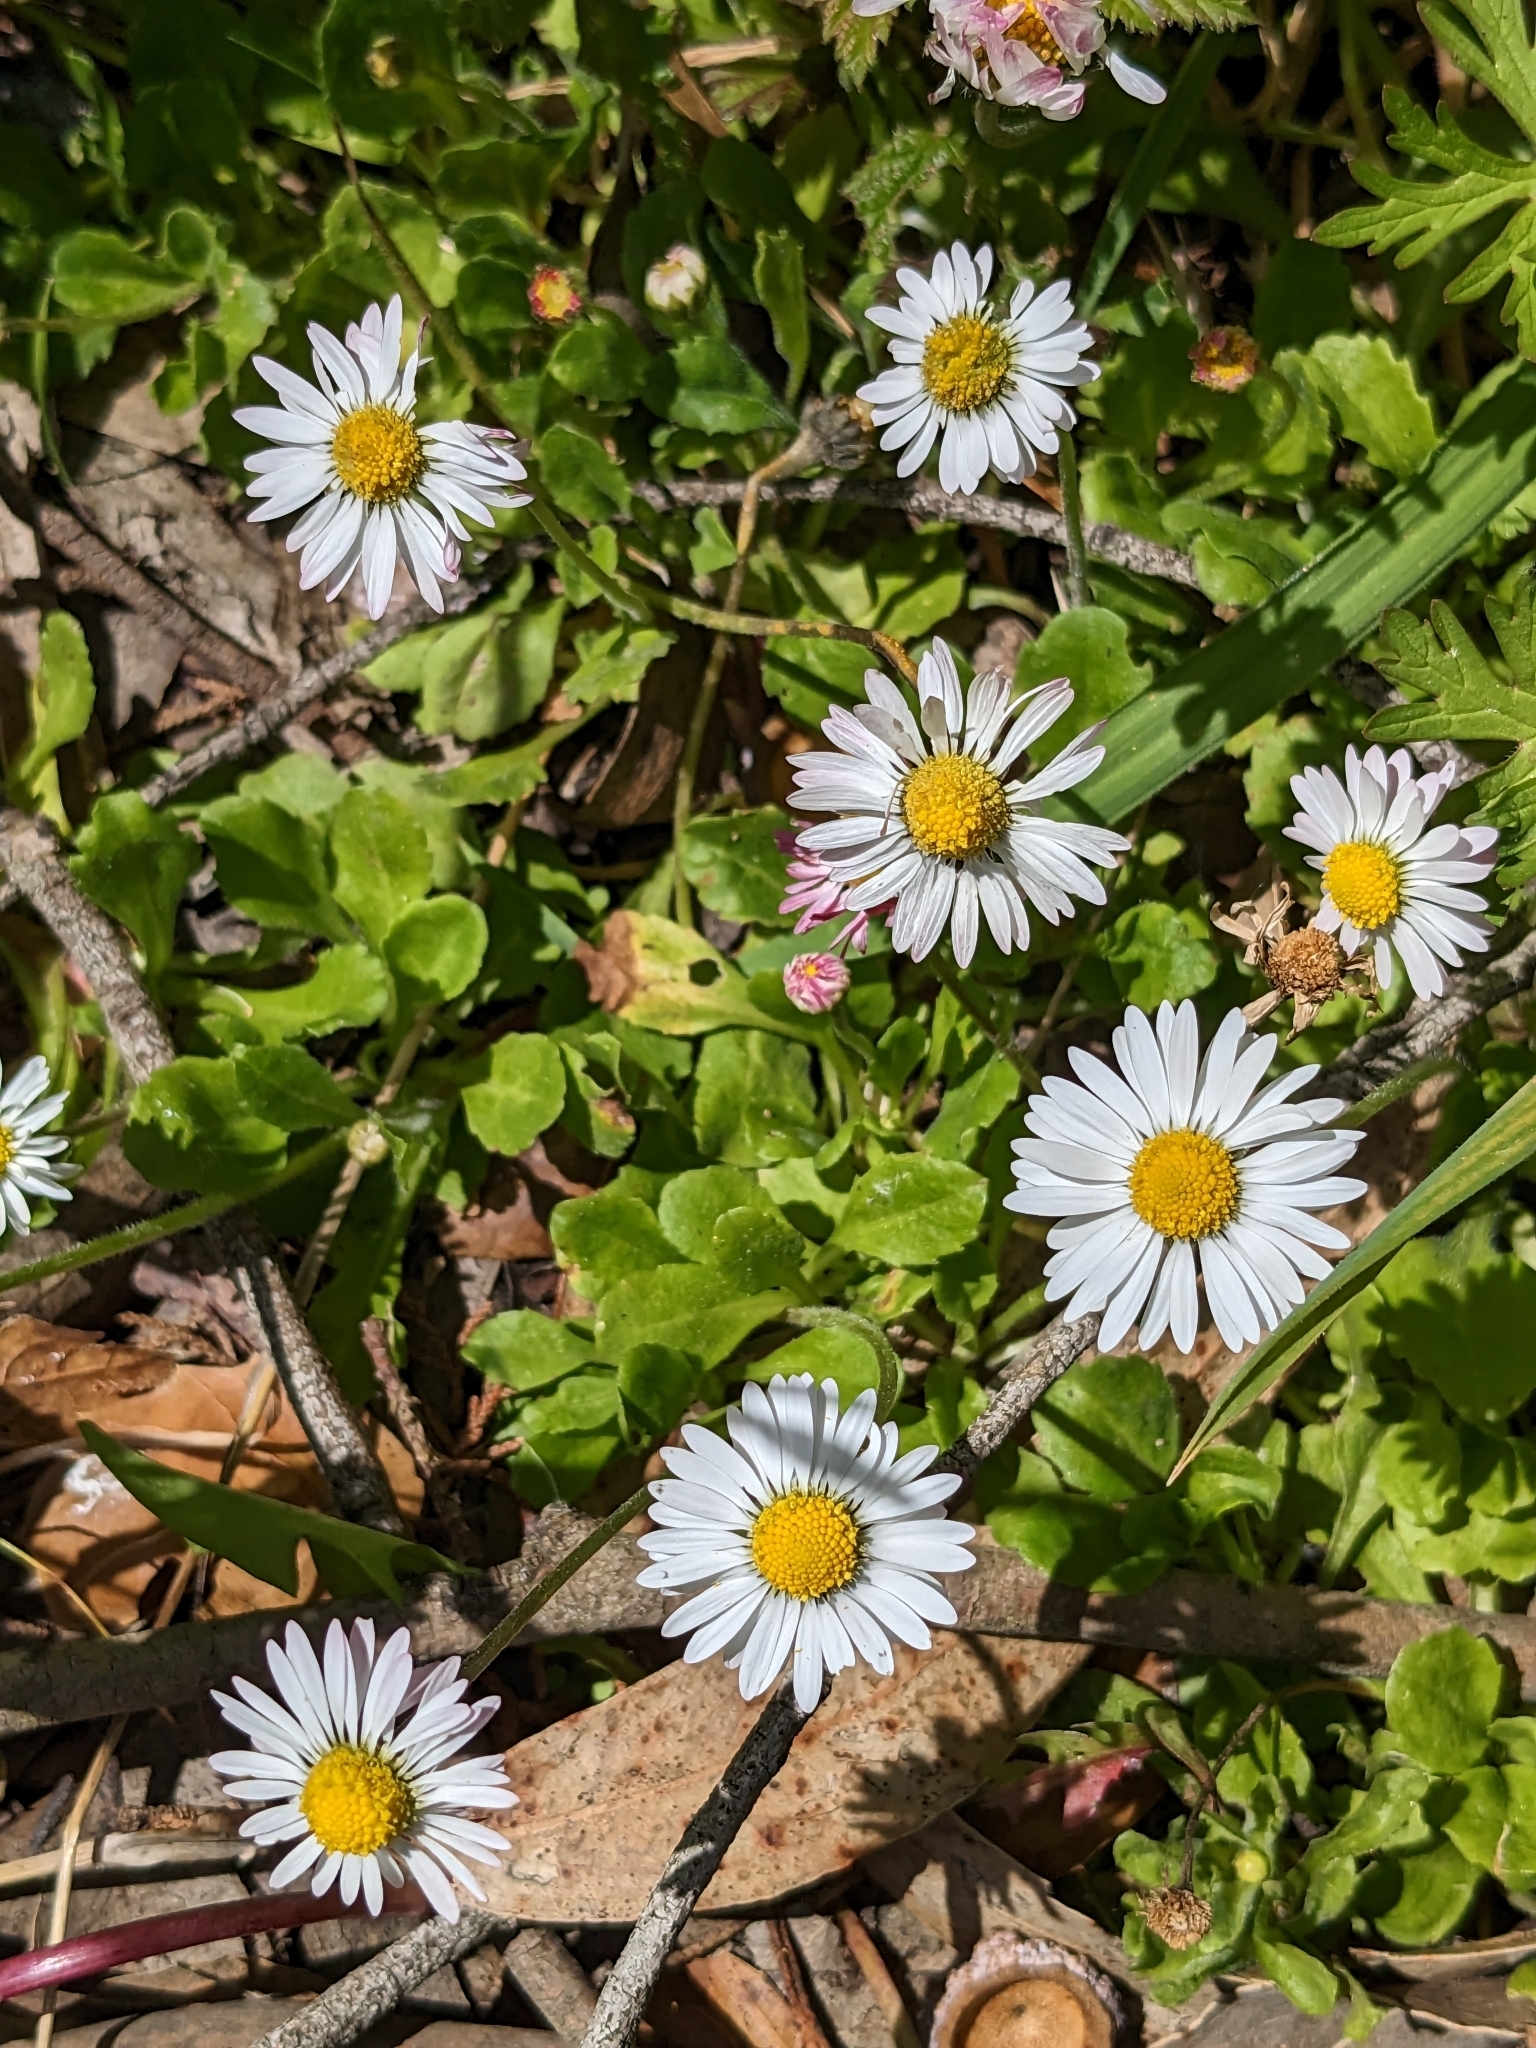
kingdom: Plantae
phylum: Tracheophyta
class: Magnoliopsida
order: Asterales
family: Asteraceae
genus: Bellis
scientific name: Bellis perennis
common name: Lawndaisy
